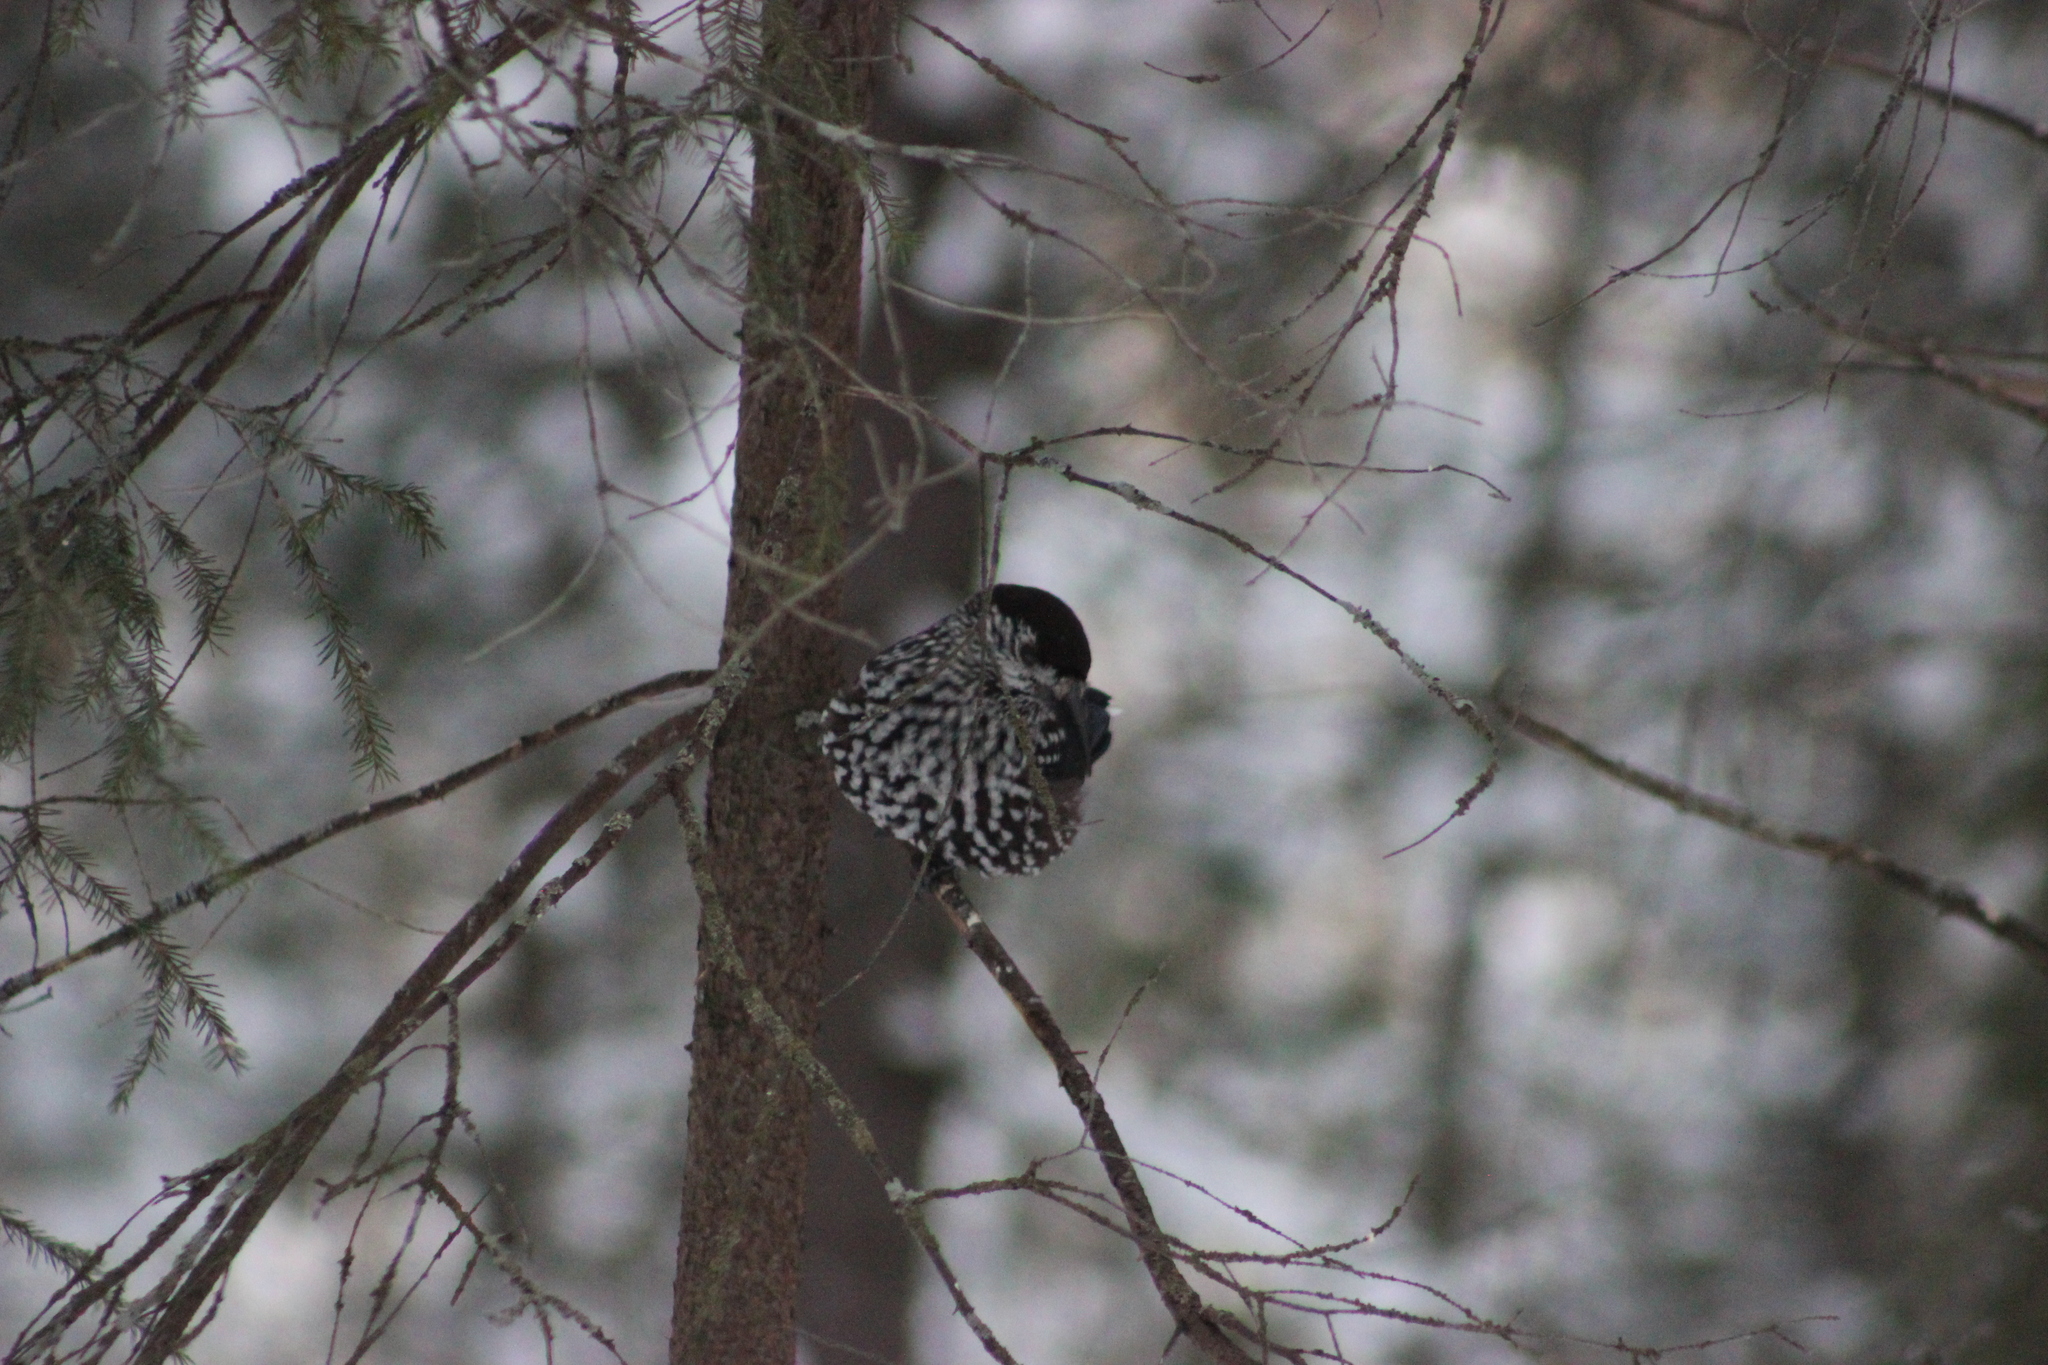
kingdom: Animalia
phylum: Chordata
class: Aves
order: Passeriformes
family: Corvidae
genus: Nucifraga
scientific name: Nucifraga caryocatactes
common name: Spotted nutcracker
